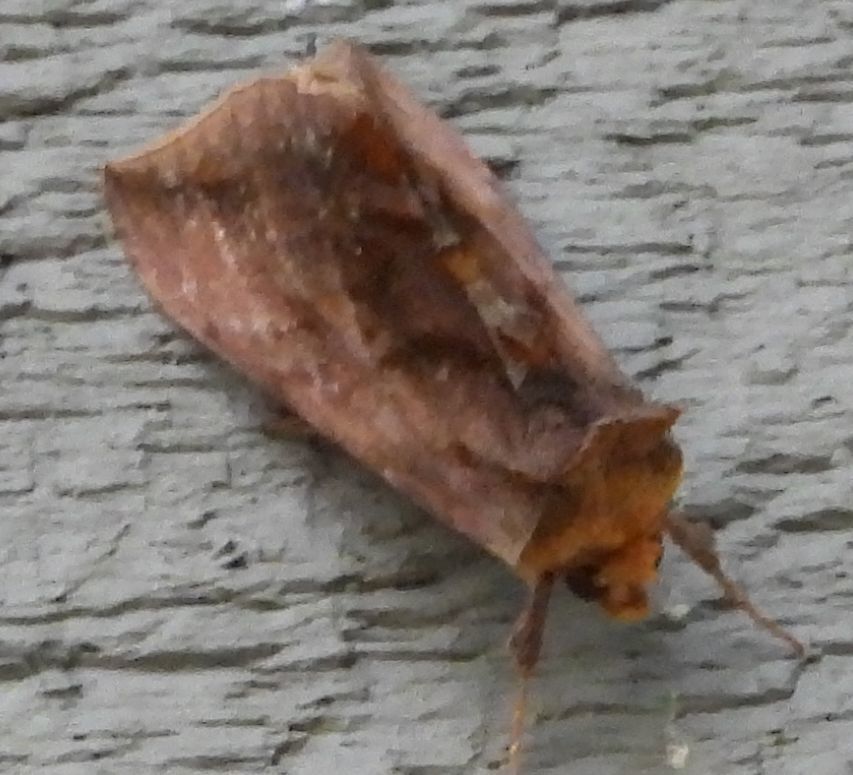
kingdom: Animalia
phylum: Arthropoda
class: Insecta
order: Lepidoptera
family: Noctuidae
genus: Allagrapha
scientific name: Allagrapha aerea
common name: Unspotted looper moth
